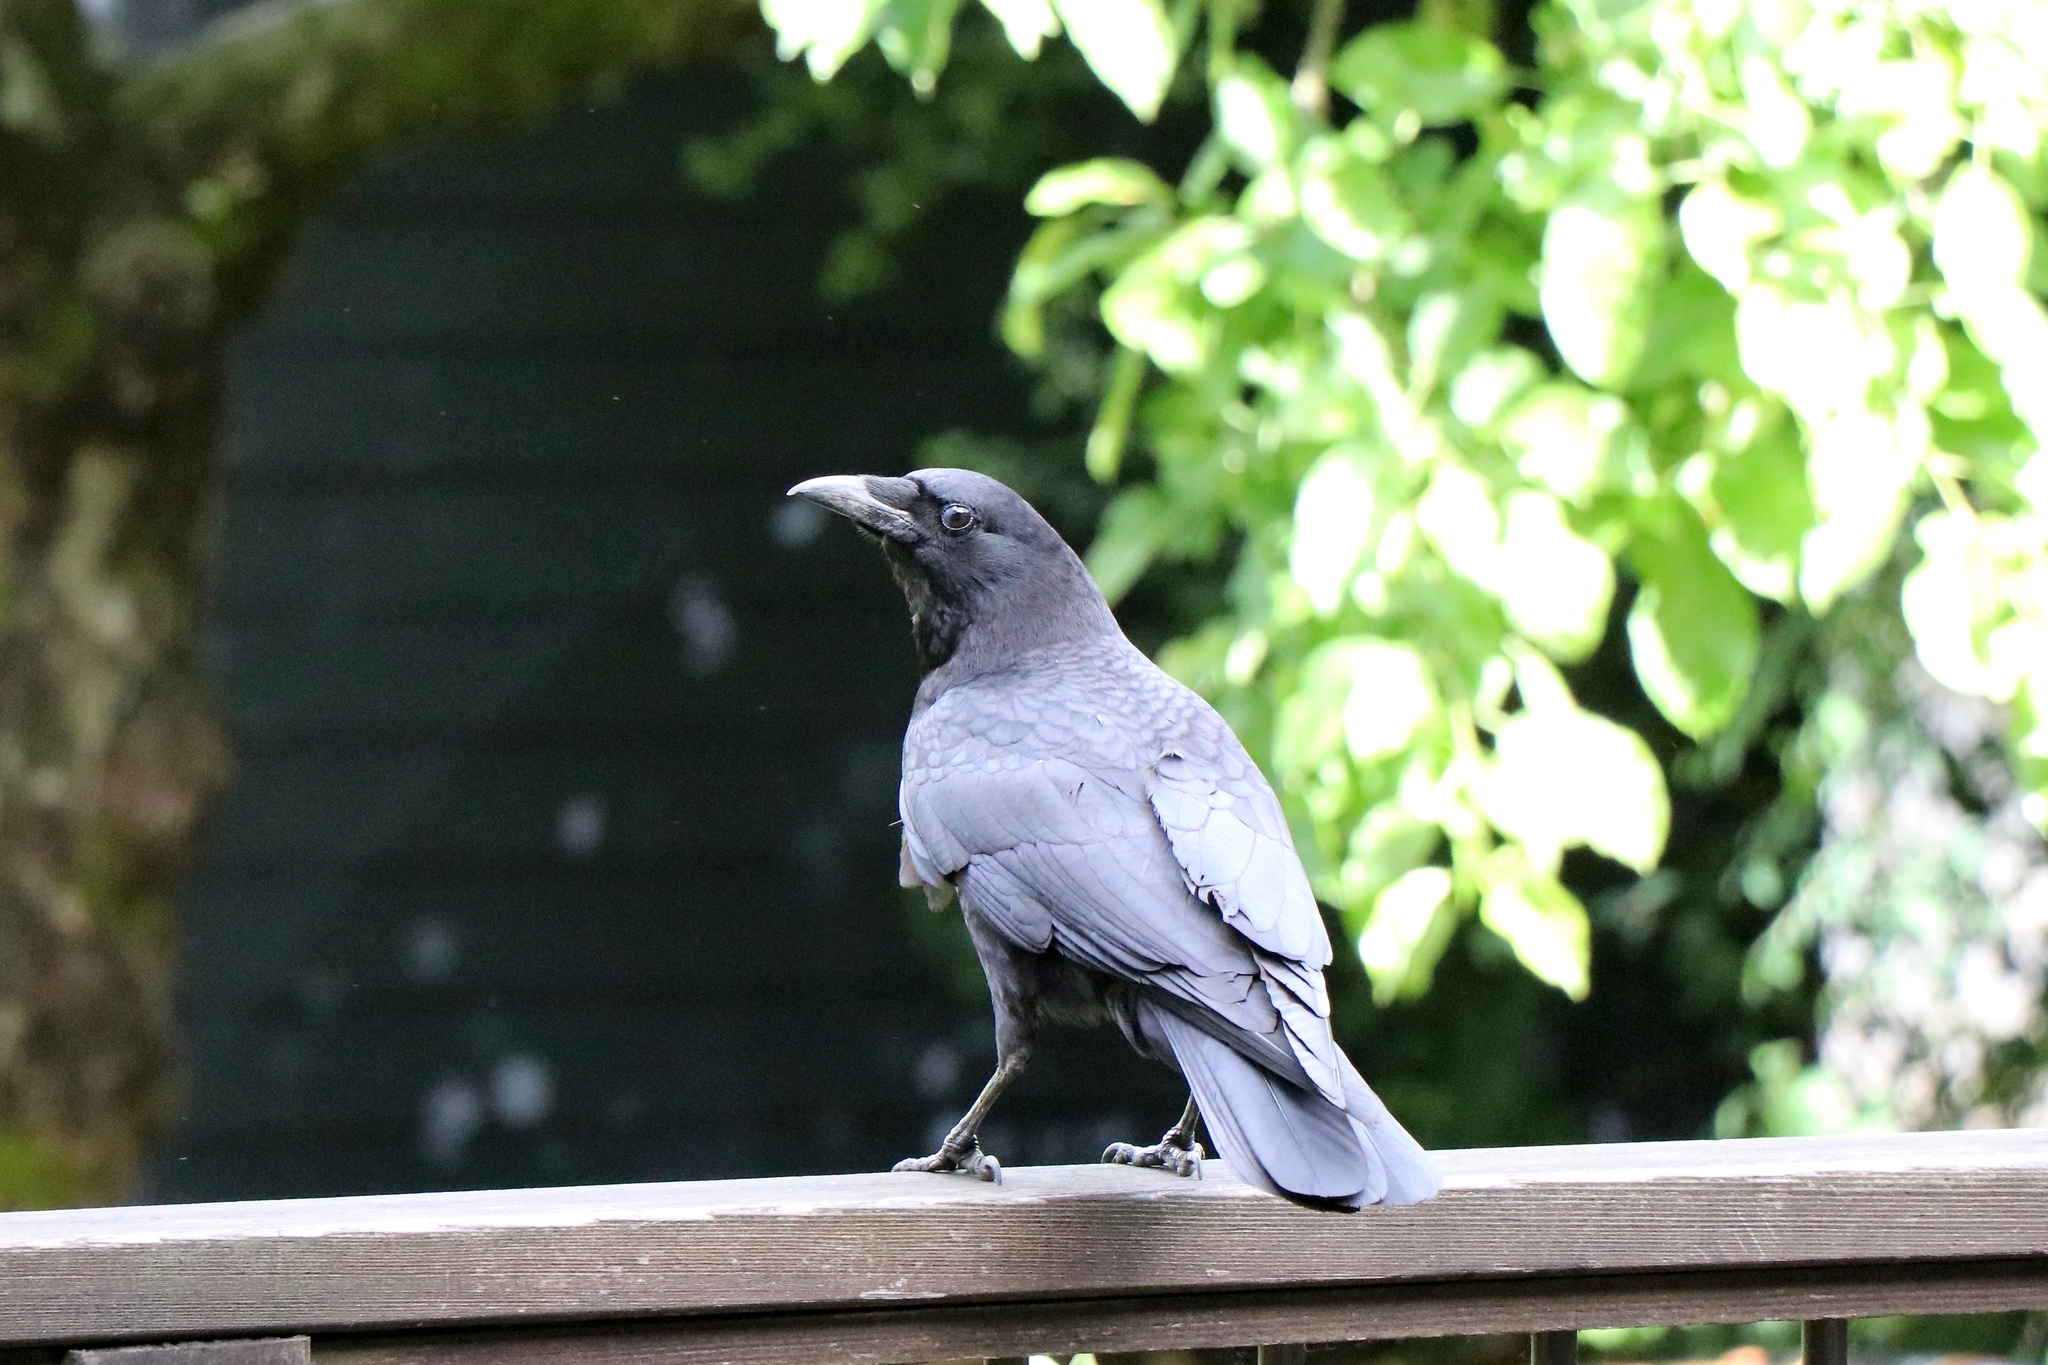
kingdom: Animalia
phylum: Chordata
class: Aves
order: Passeriformes
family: Corvidae
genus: Corvus
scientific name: Corvus brachyrhynchos
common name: American crow
